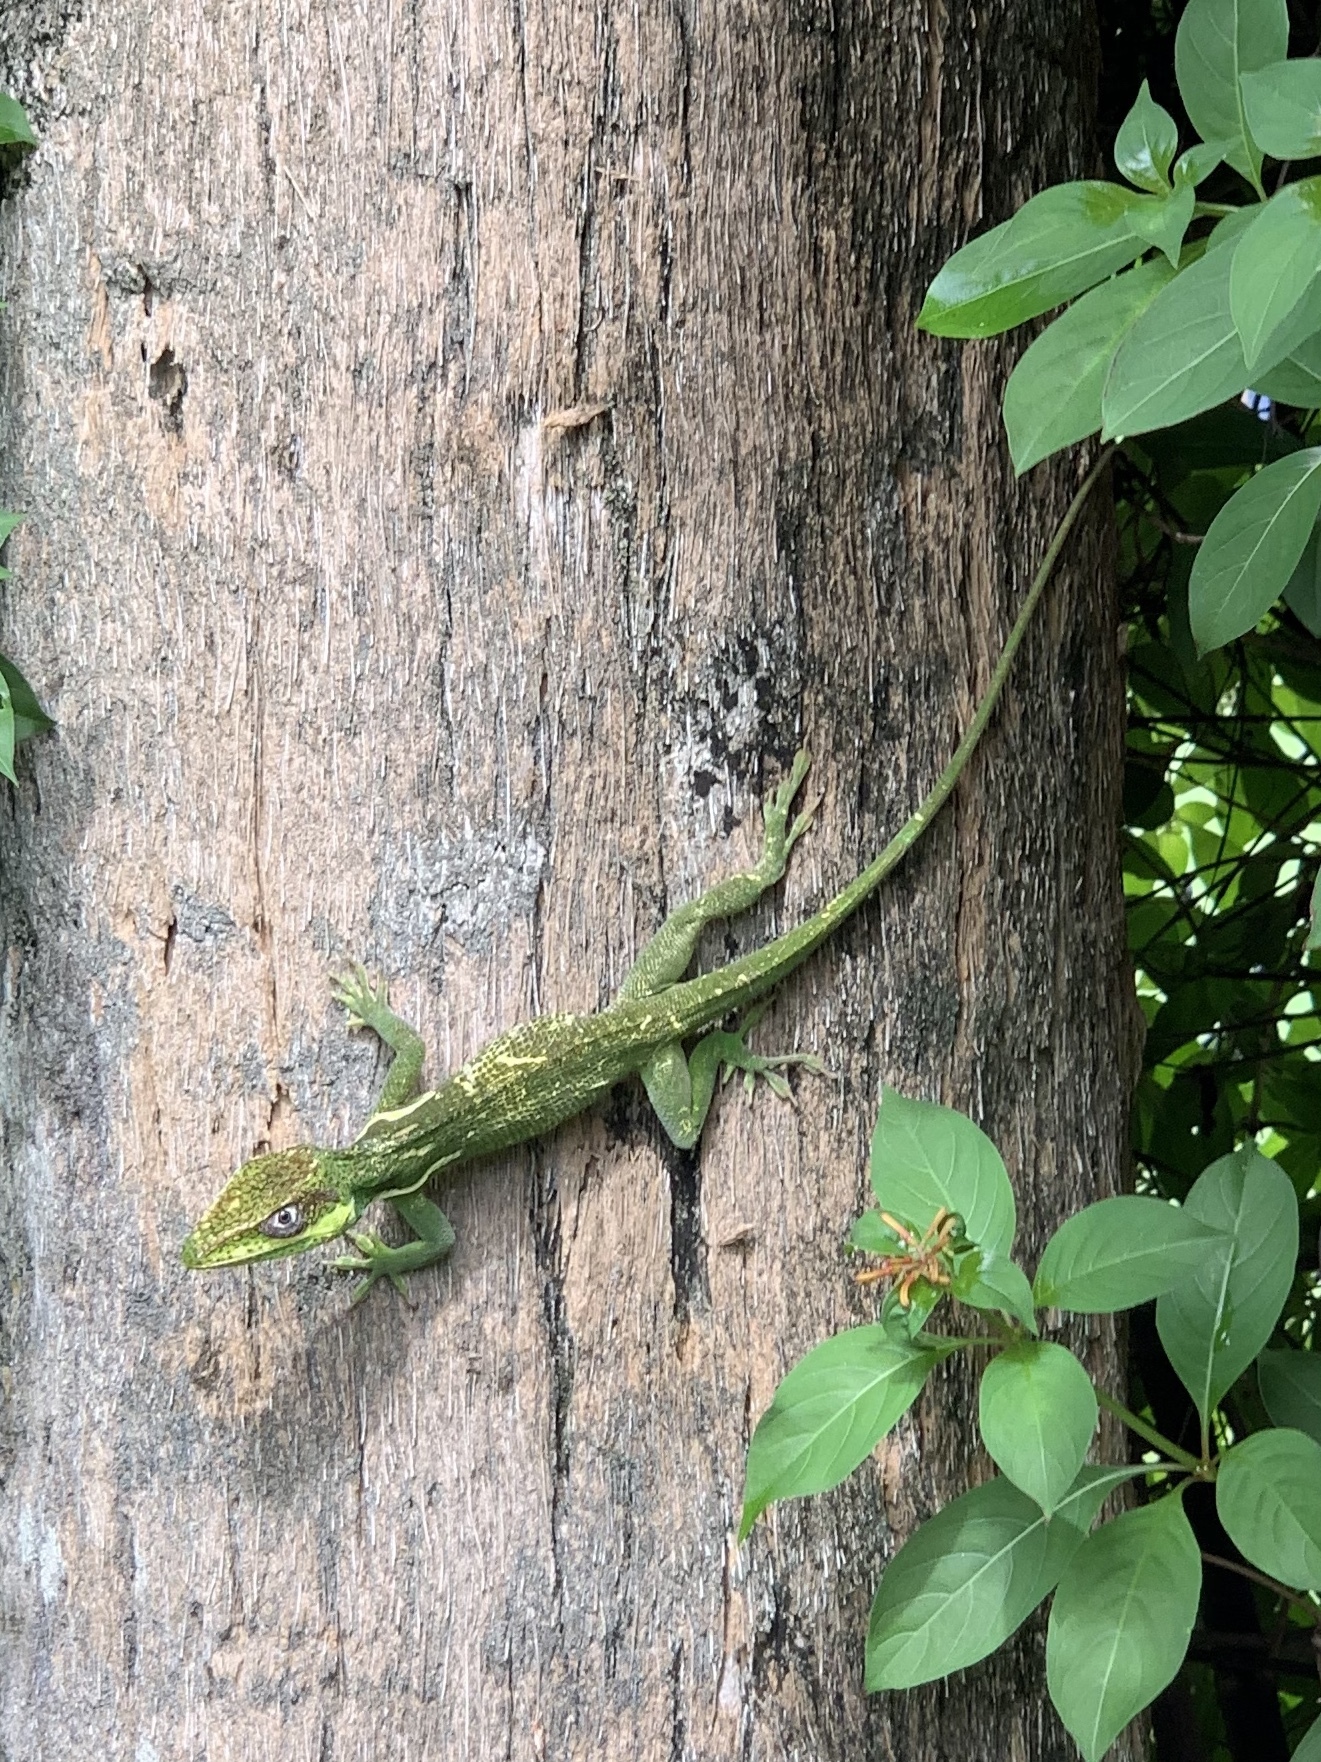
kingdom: Animalia
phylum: Chordata
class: Squamata
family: Dactyloidae
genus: Anolis
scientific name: Anolis equestris
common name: Knight anole
